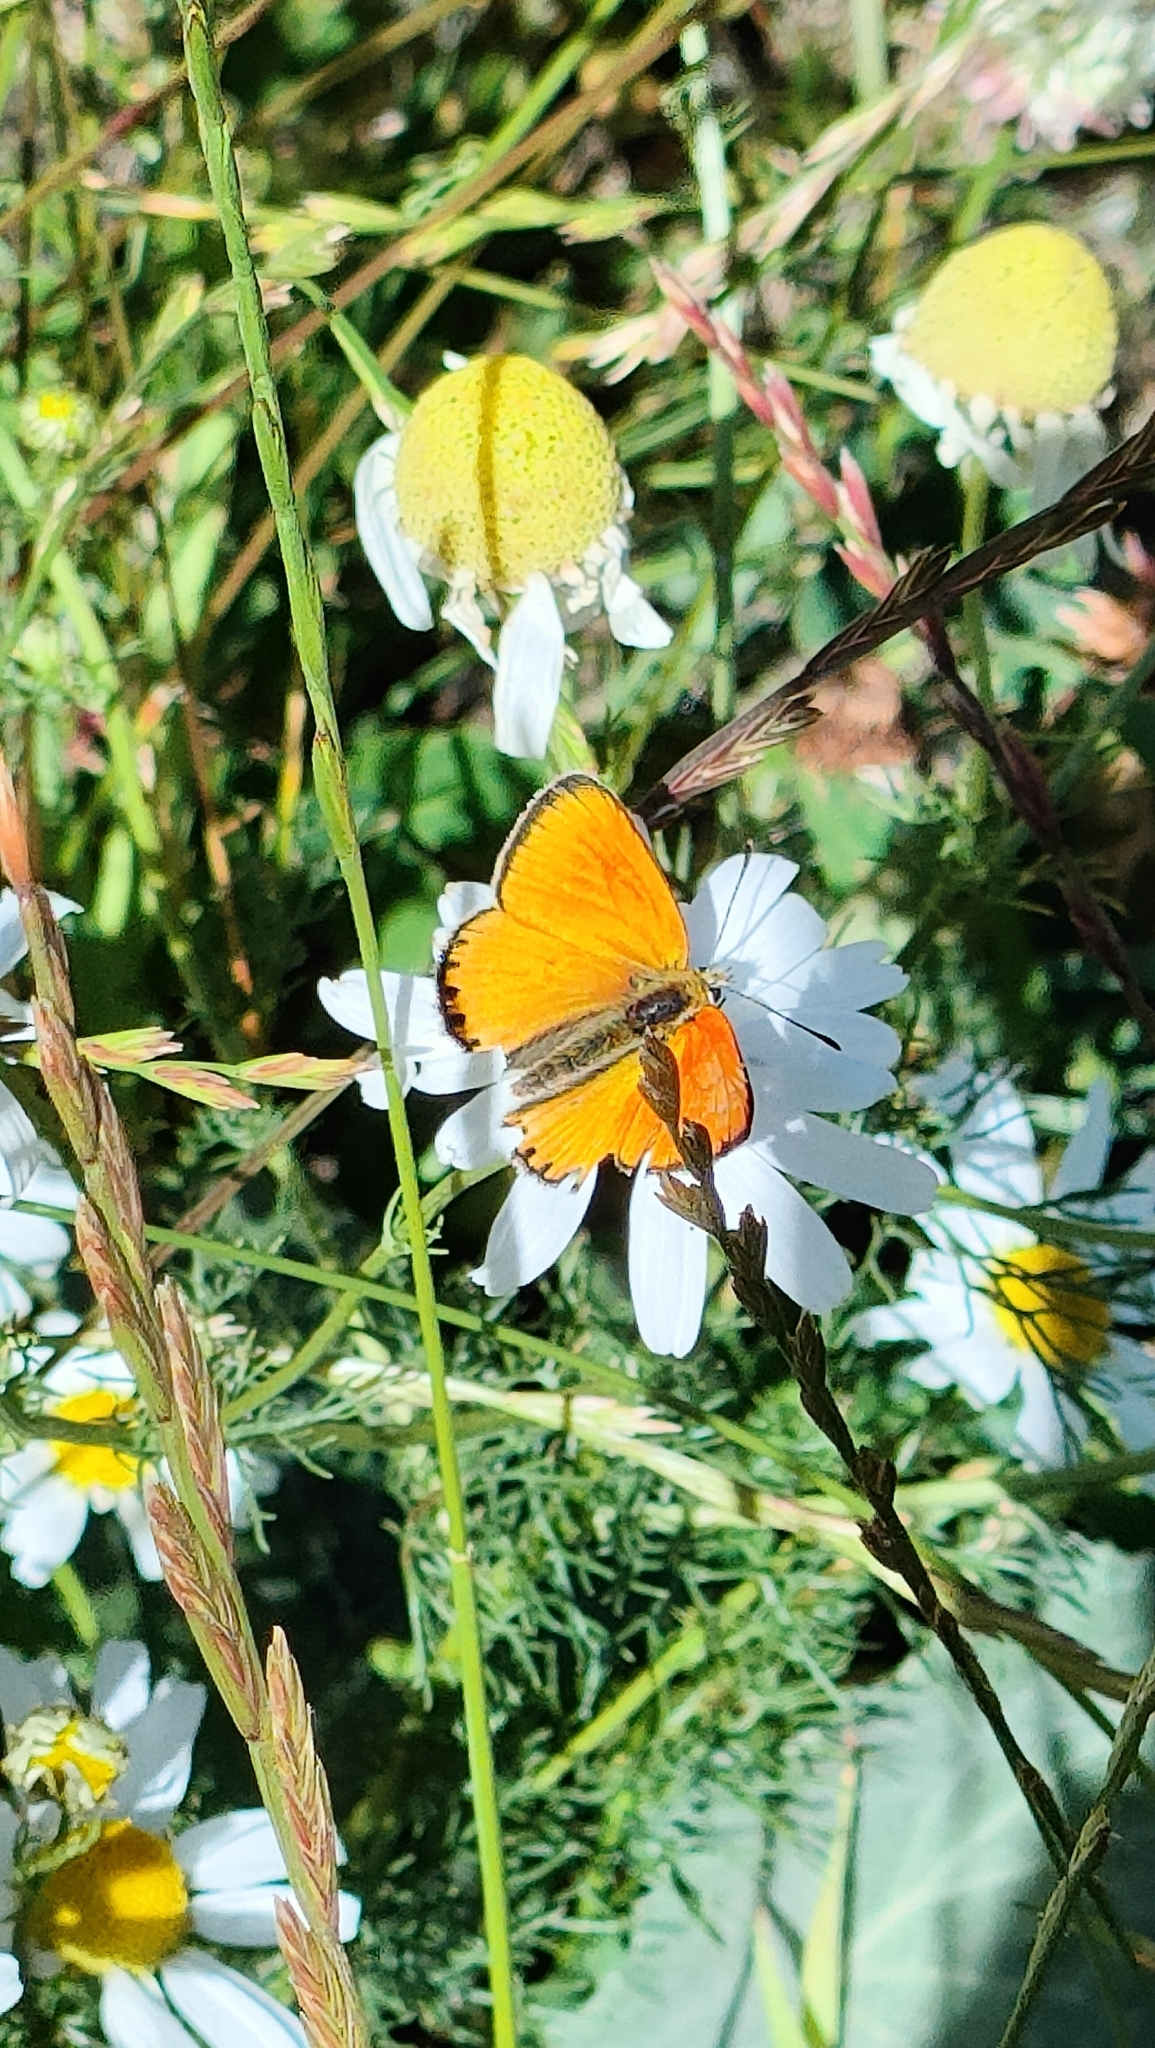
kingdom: Animalia
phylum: Arthropoda
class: Insecta
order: Lepidoptera
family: Lycaenidae
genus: Lycaena
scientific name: Lycaena virgaureae
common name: Scarce copper
